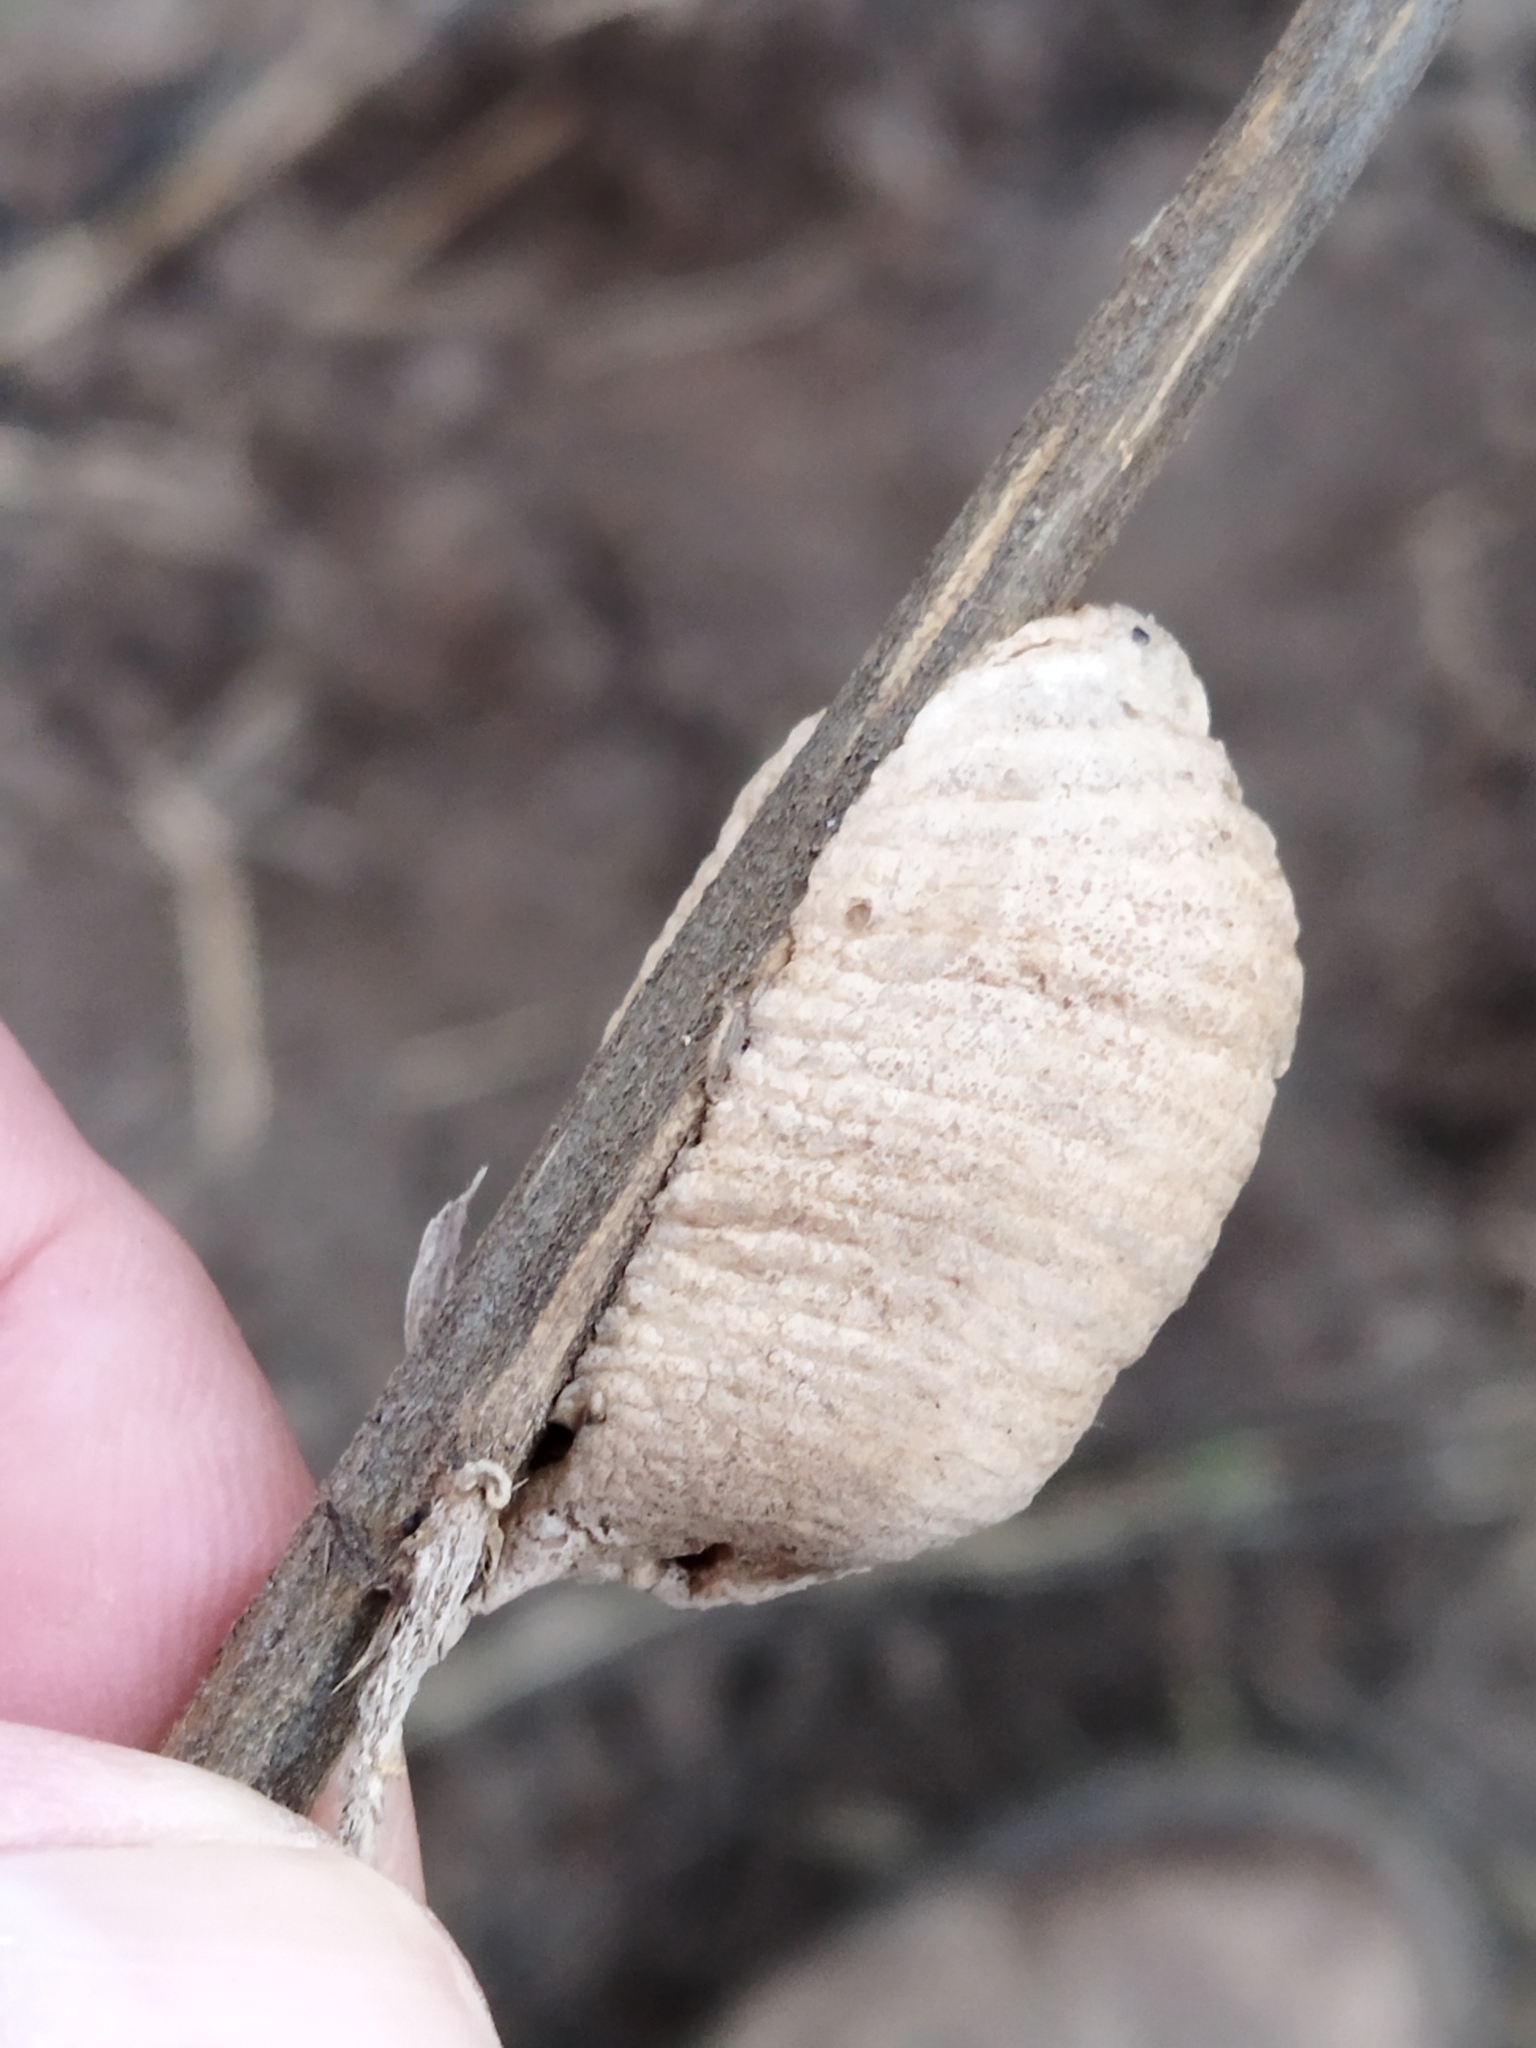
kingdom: Animalia
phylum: Arthropoda
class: Insecta
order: Mantodea
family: Mantidae
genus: Mantis
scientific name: Mantis religiosa
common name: Praying mantis
